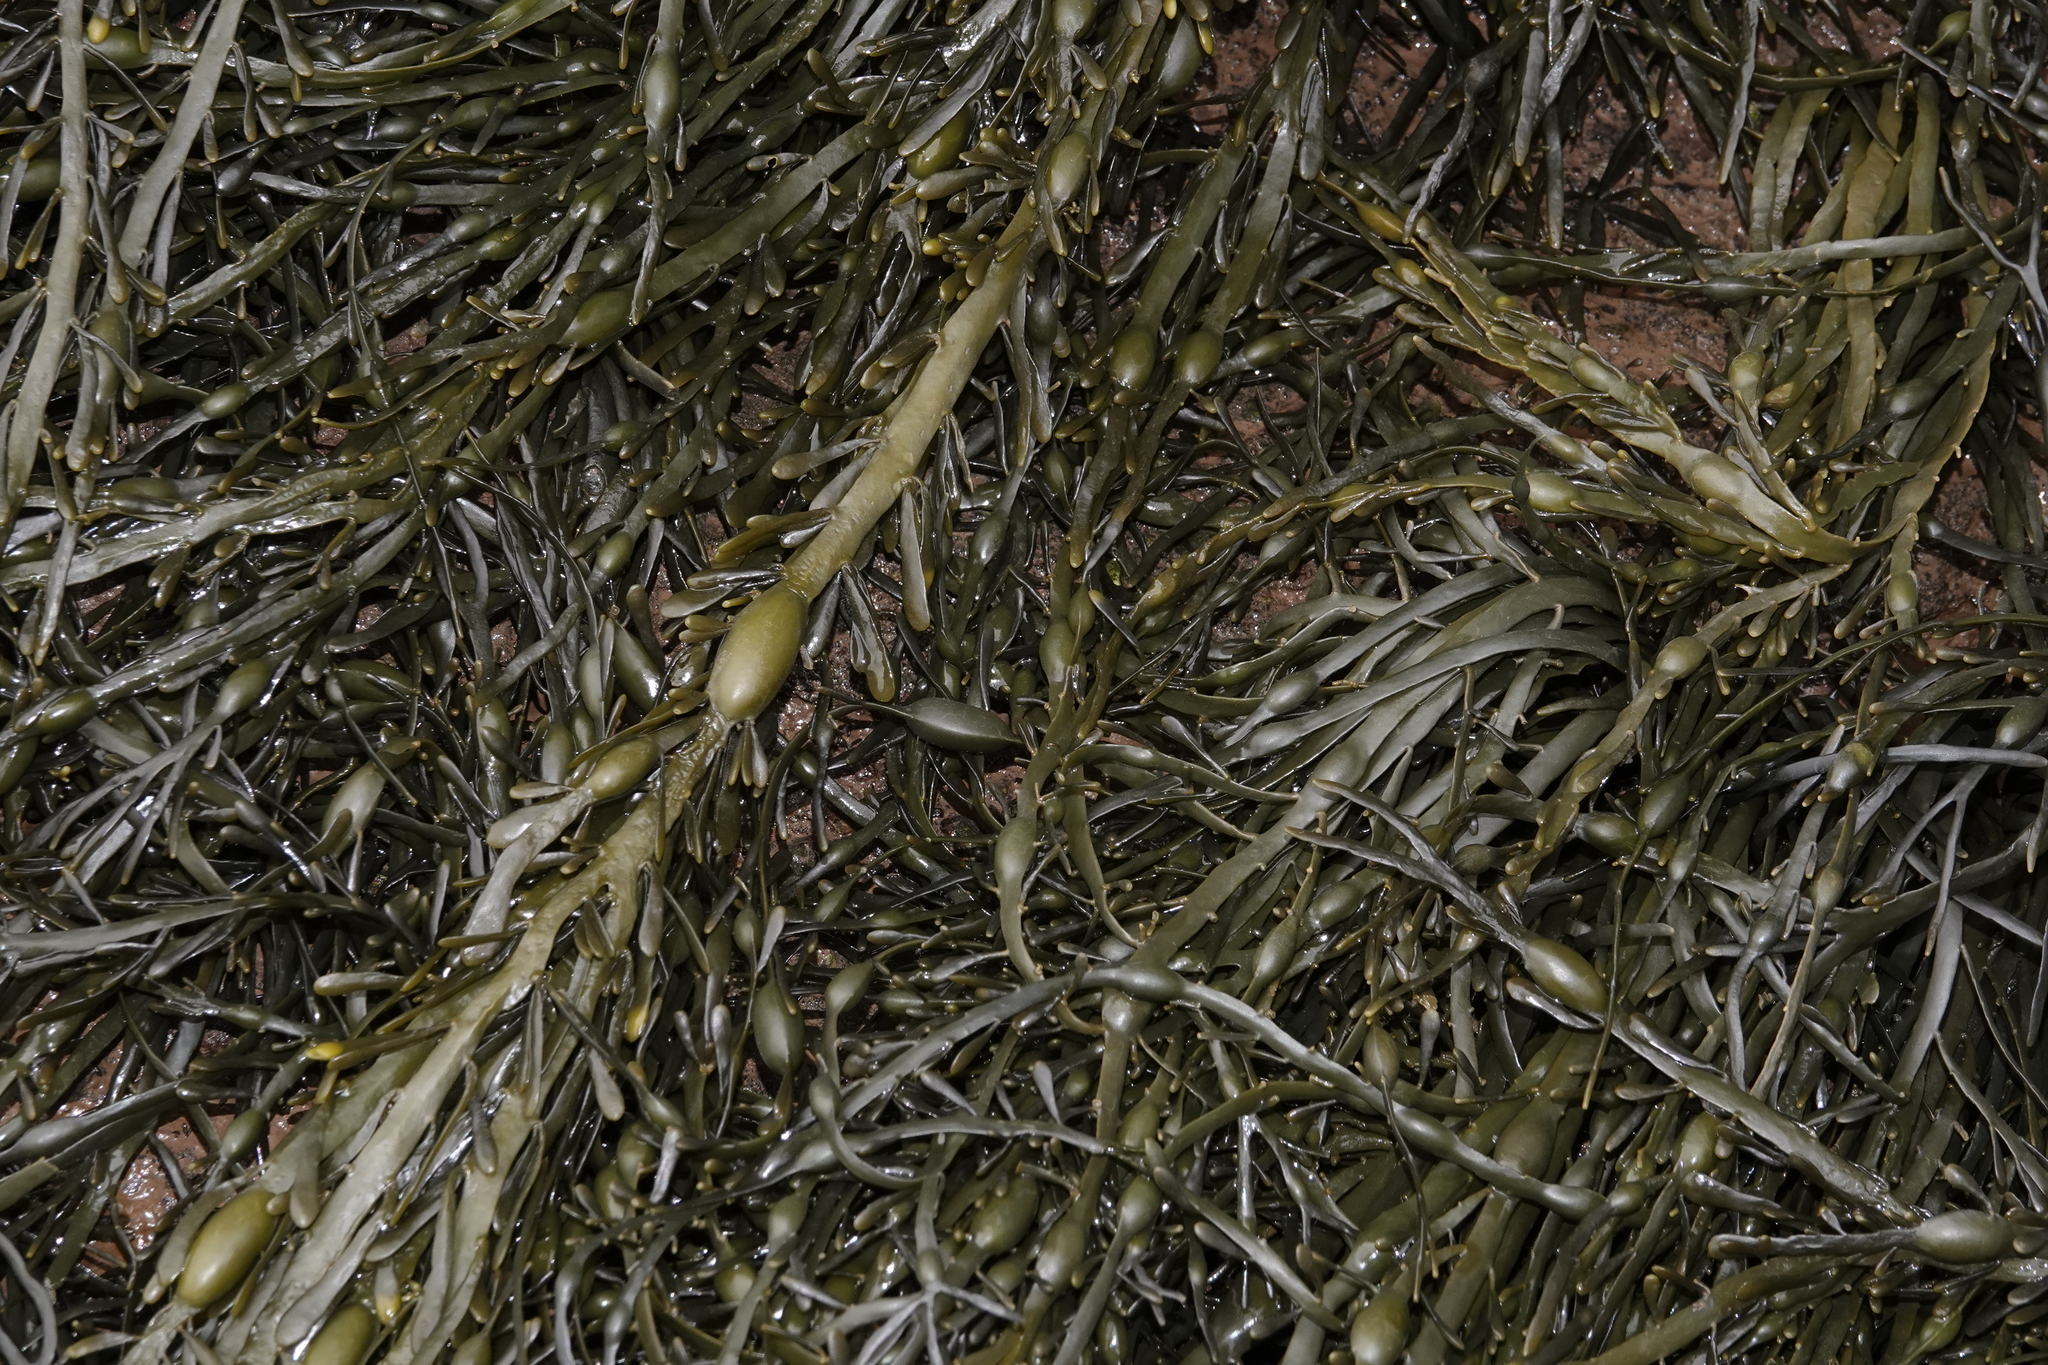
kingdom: Chromista
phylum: Ochrophyta
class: Phaeophyceae
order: Fucales
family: Fucaceae
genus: Ascophyllum
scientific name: Ascophyllum nodosum
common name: Knotted wrack
